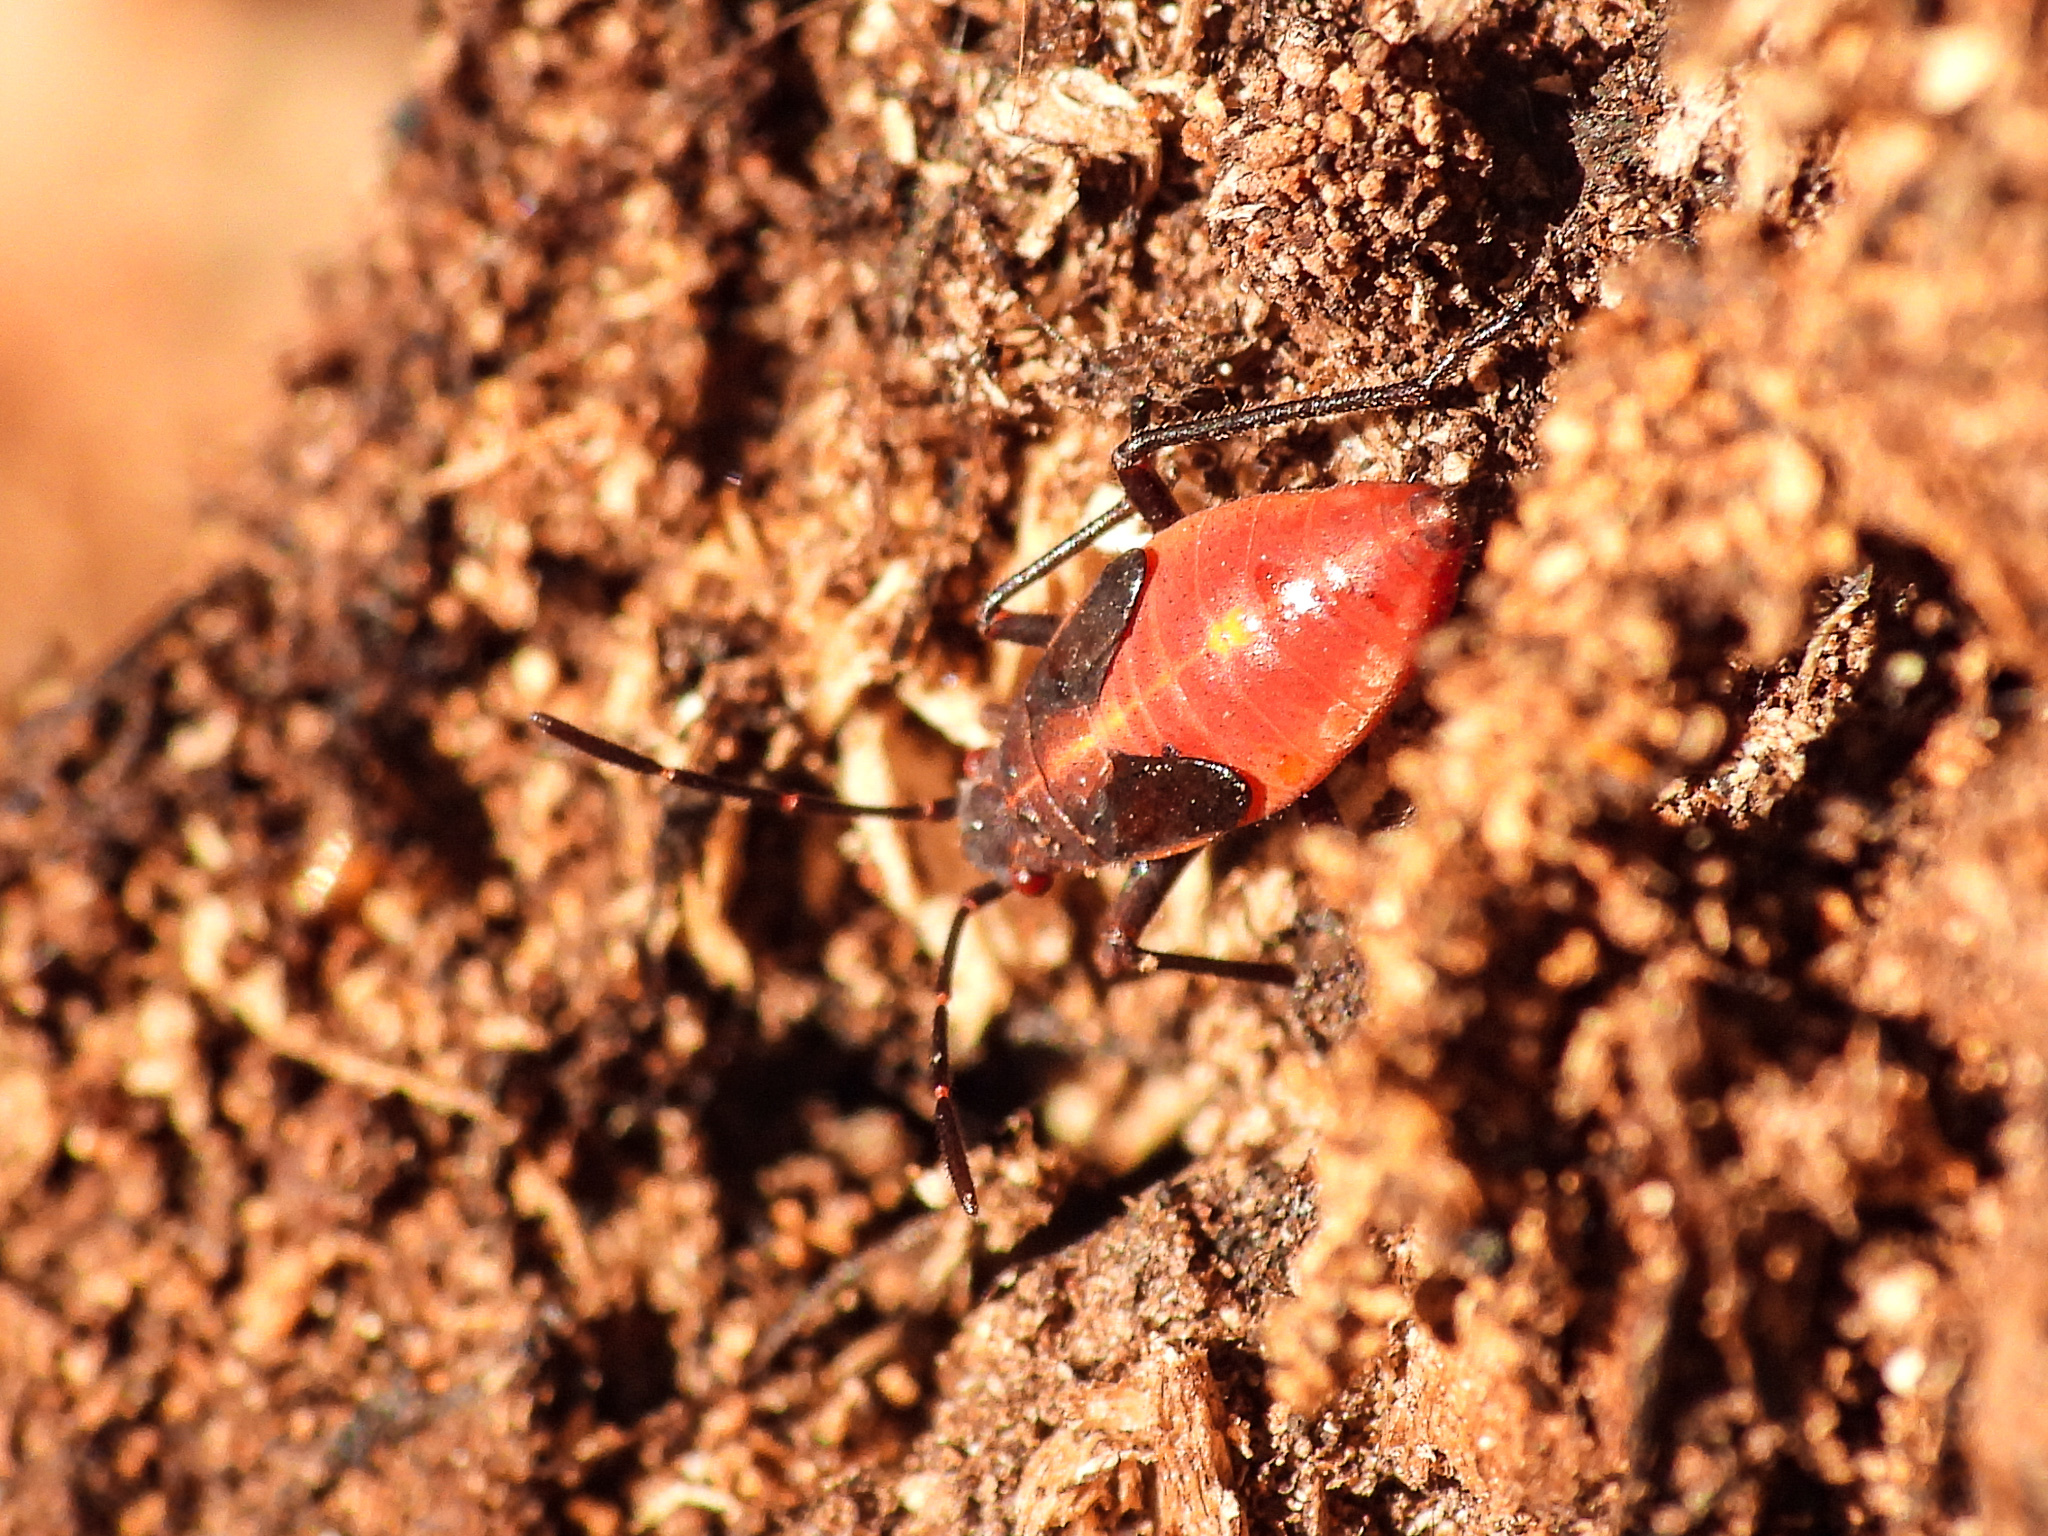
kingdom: Animalia
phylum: Arthropoda
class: Insecta
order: Hemiptera
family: Rhopalidae
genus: Boisea
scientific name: Boisea trivittata
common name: Boxelder bug
